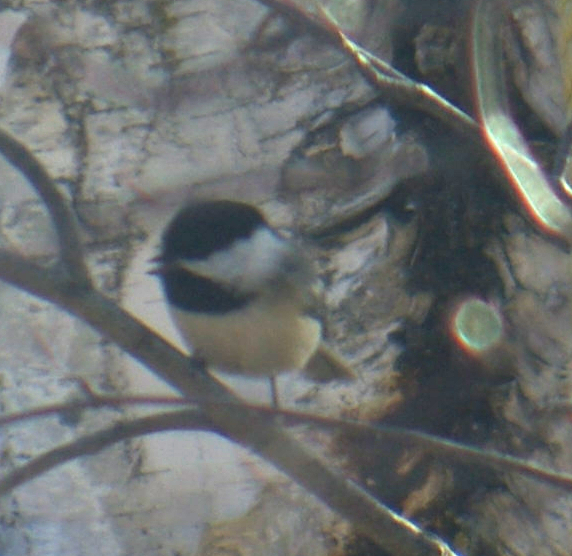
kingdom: Animalia
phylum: Chordata
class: Aves
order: Passeriformes
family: Paridae
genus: Poecile
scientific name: Poecile atricapillus
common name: Black-capped chickadee
